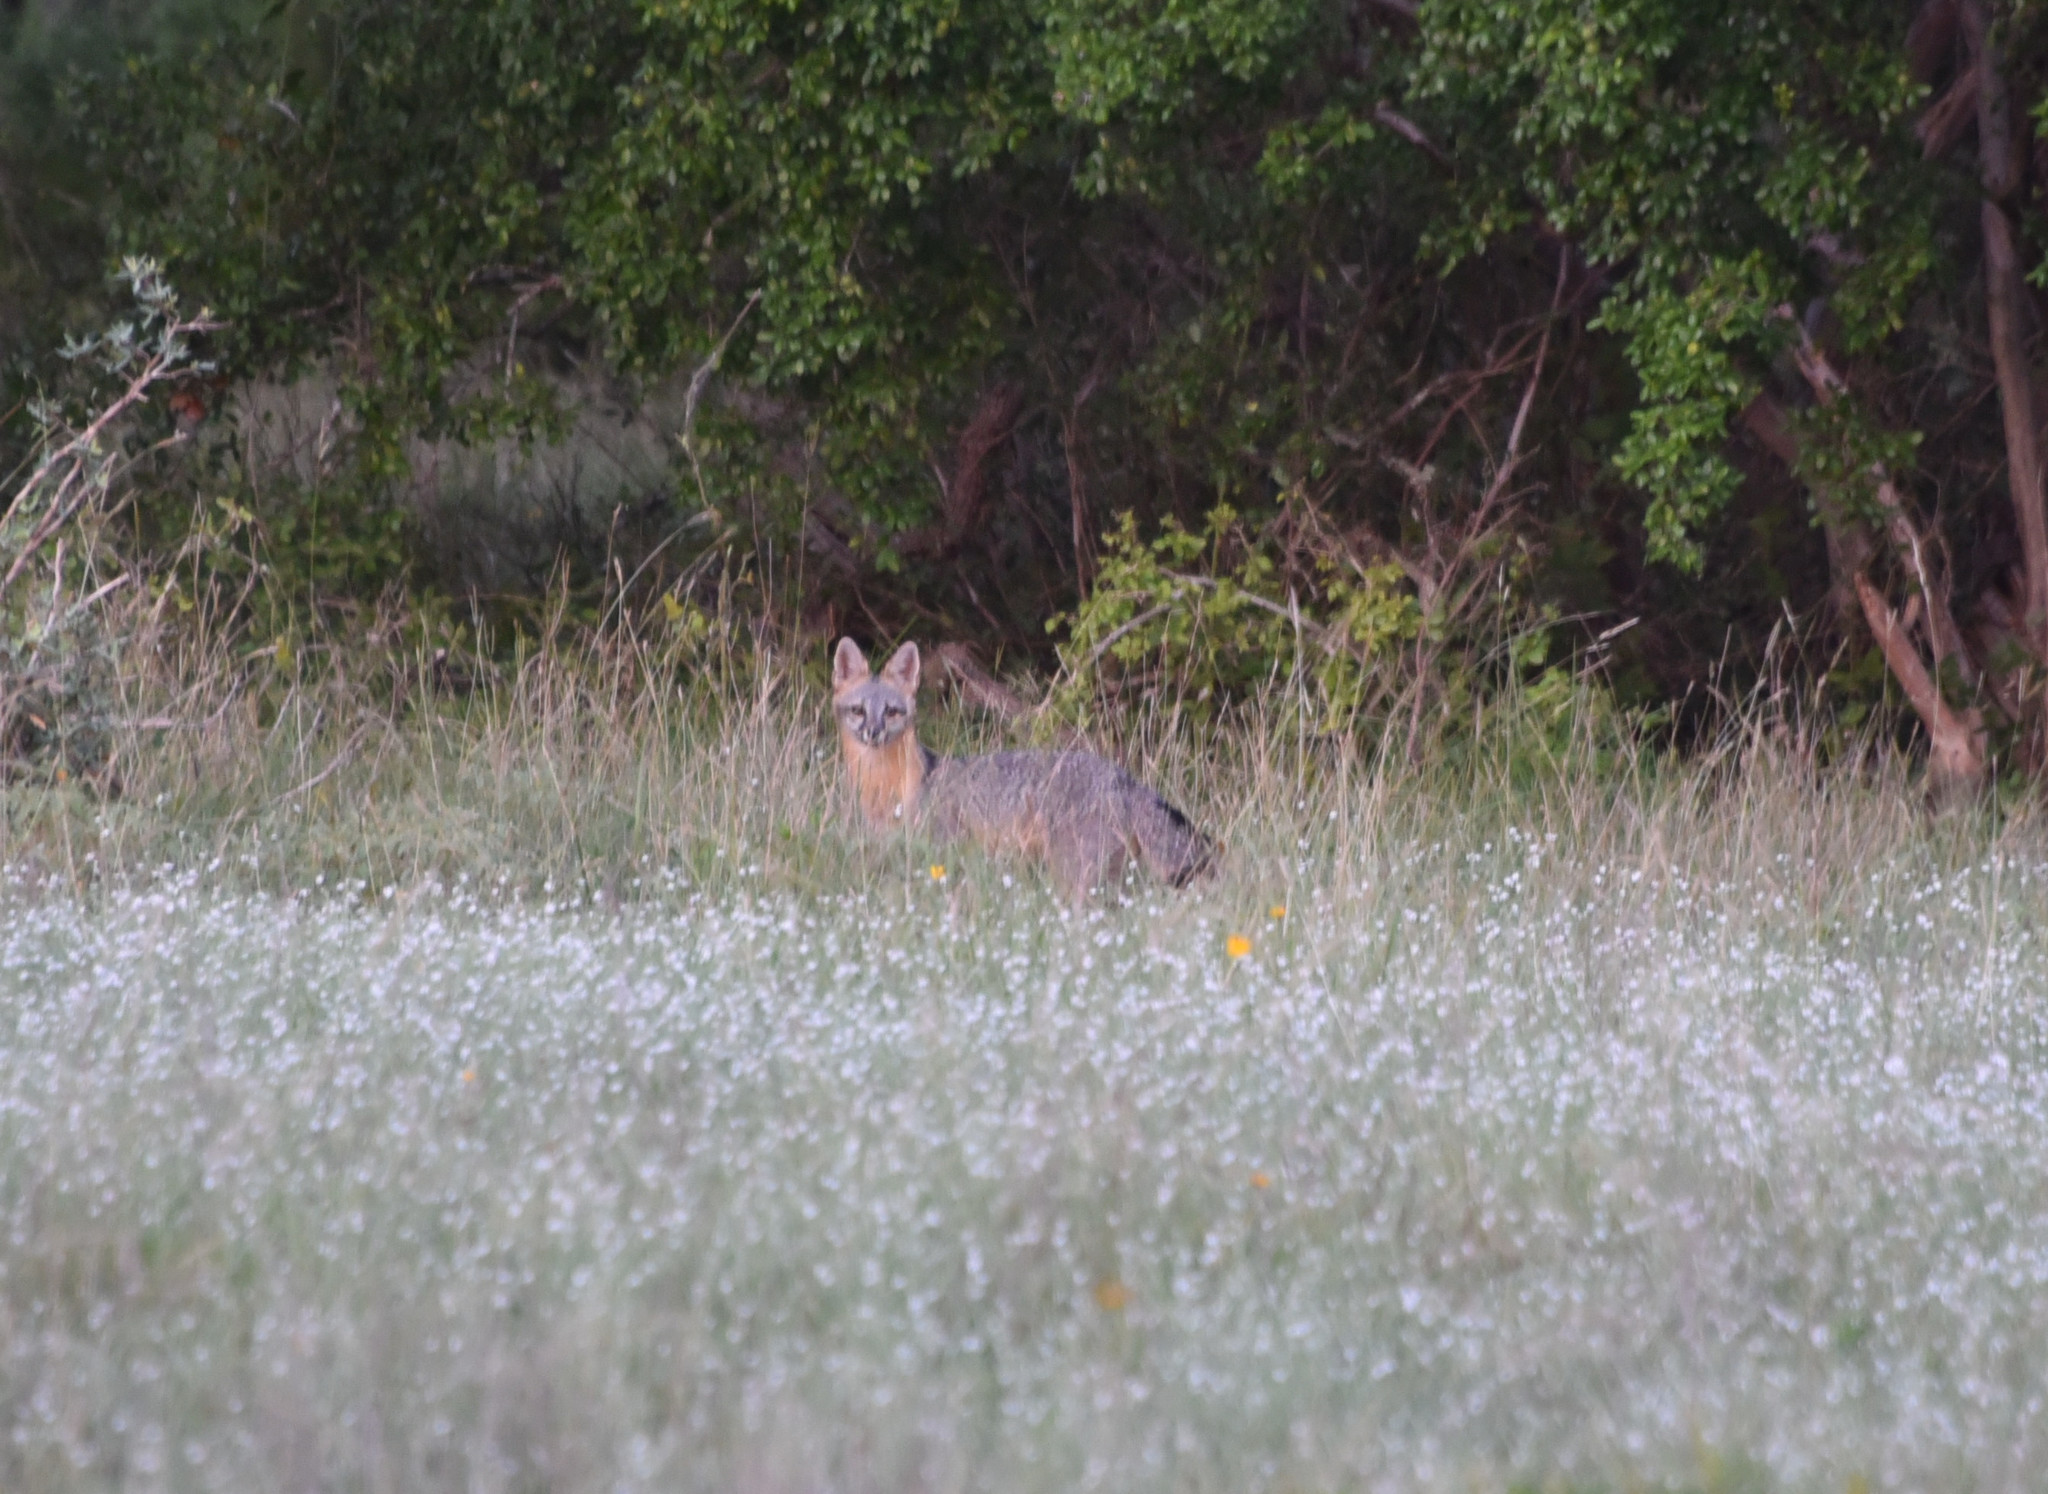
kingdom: Animalia
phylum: Chordata
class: Mammalia
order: Carnivora
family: Canidae
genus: Urocyon
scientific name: Urocyon cinereoargenteus
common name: Gray fox
